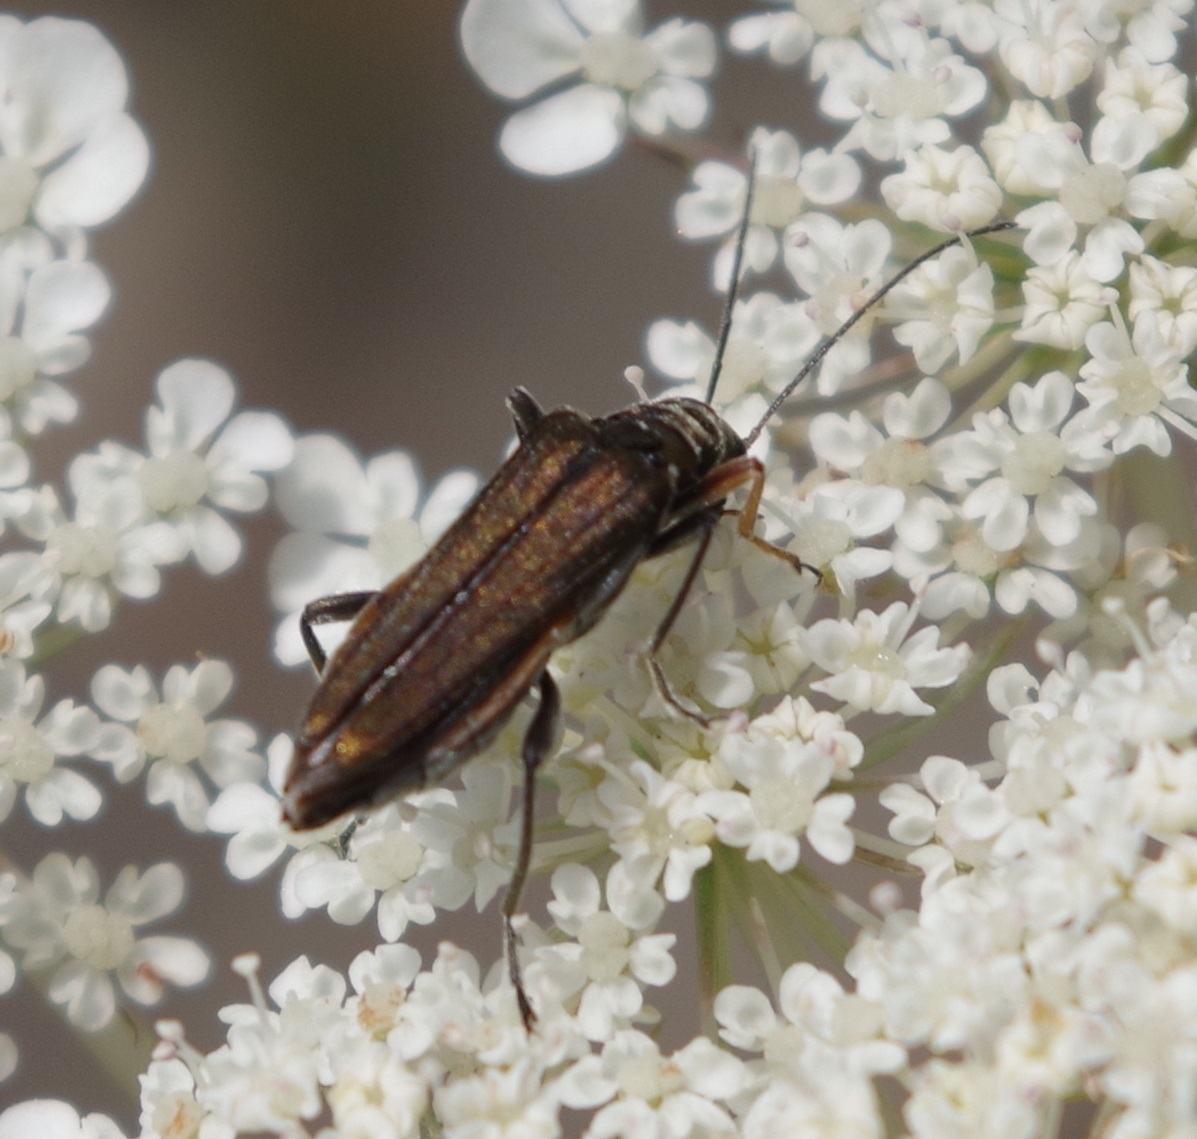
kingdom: Animalia
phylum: Arthropoda
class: Insecta
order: Coleoptera
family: Oedemeridae
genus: Oedemera
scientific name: Oedemera flavipes
